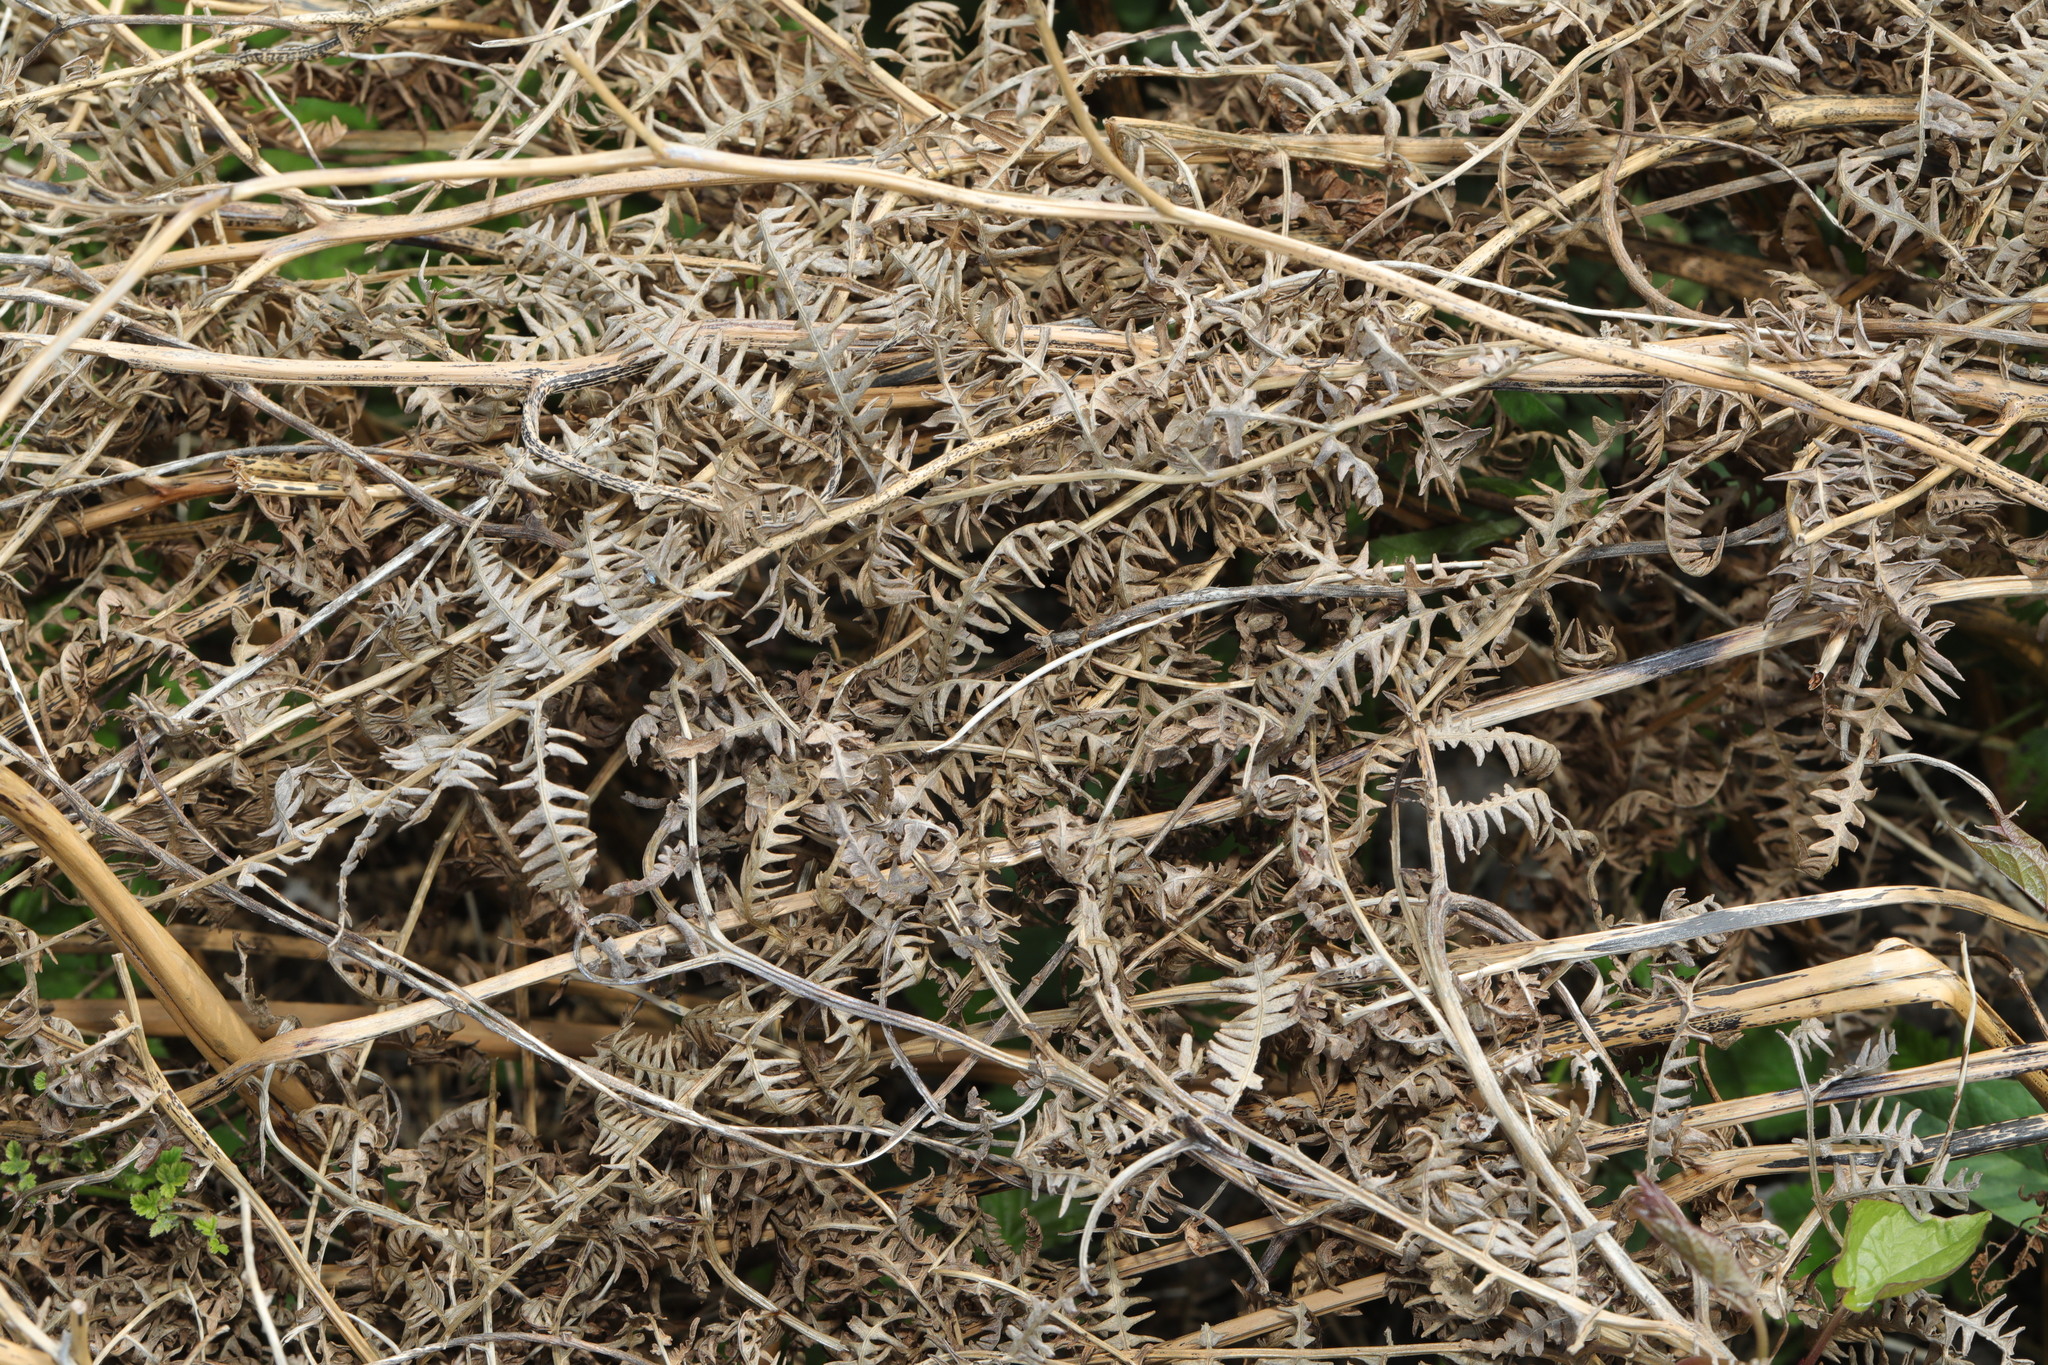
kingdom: Plantae
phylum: Tracheophyta
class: Polypodiopsida
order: Polypodiales
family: Dennstaedtiaceae
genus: Pteridium
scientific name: Pteridium aquilinum
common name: Bracken
